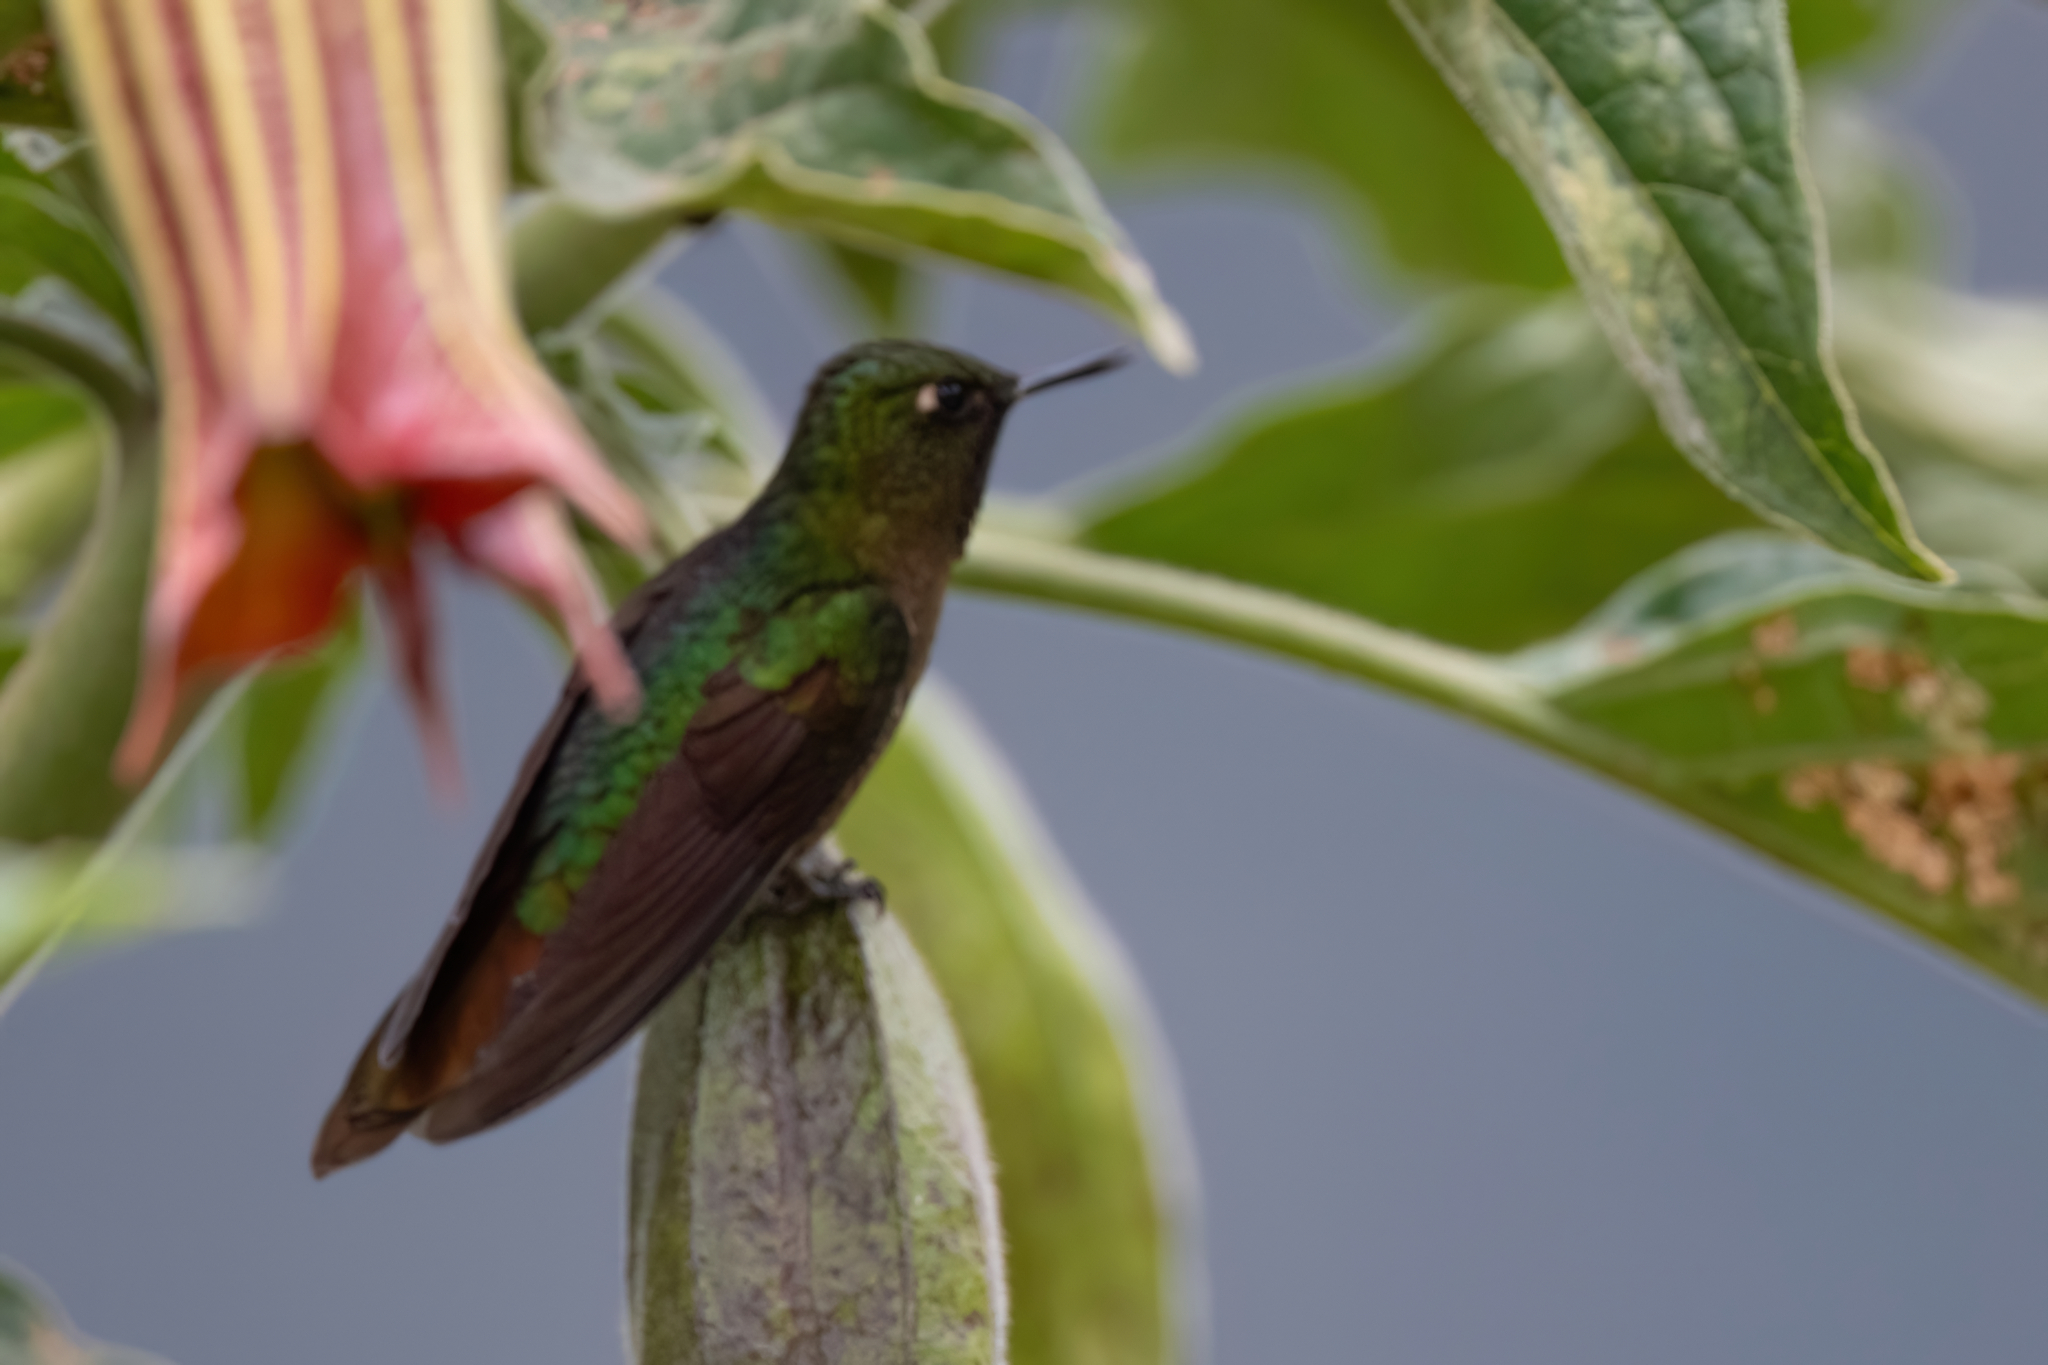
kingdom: Animalia
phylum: Chordata
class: Aves
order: Apodiformes
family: Trochilidae
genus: Metallura
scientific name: Metallura tyrianthina
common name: Tyrian metaltail
